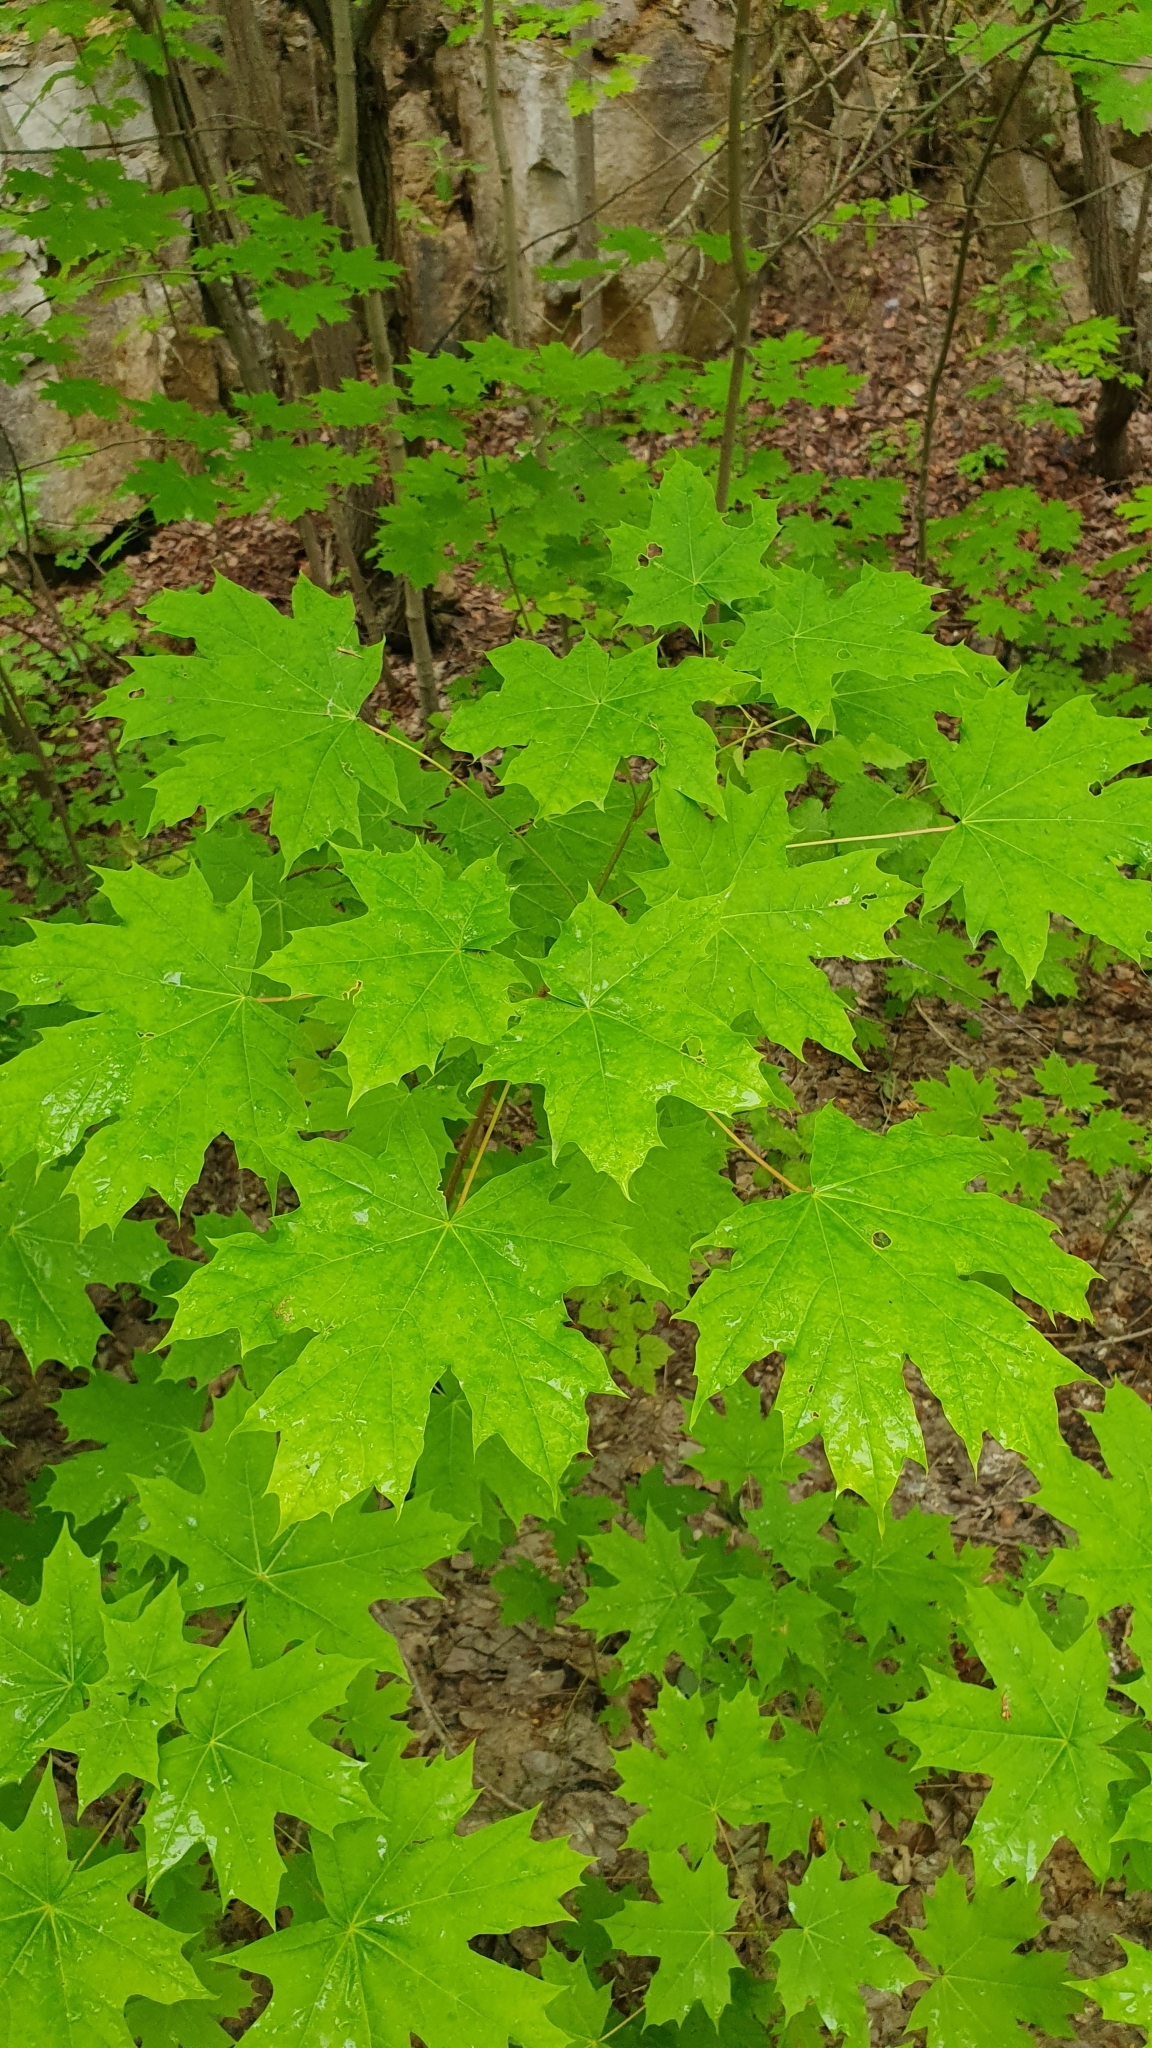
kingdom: Plantae
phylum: Tracheophyta
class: Magnoliopsida
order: Sapindales
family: Sapindaceae
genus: Acer
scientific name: Acer platanoides
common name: Norway maple
